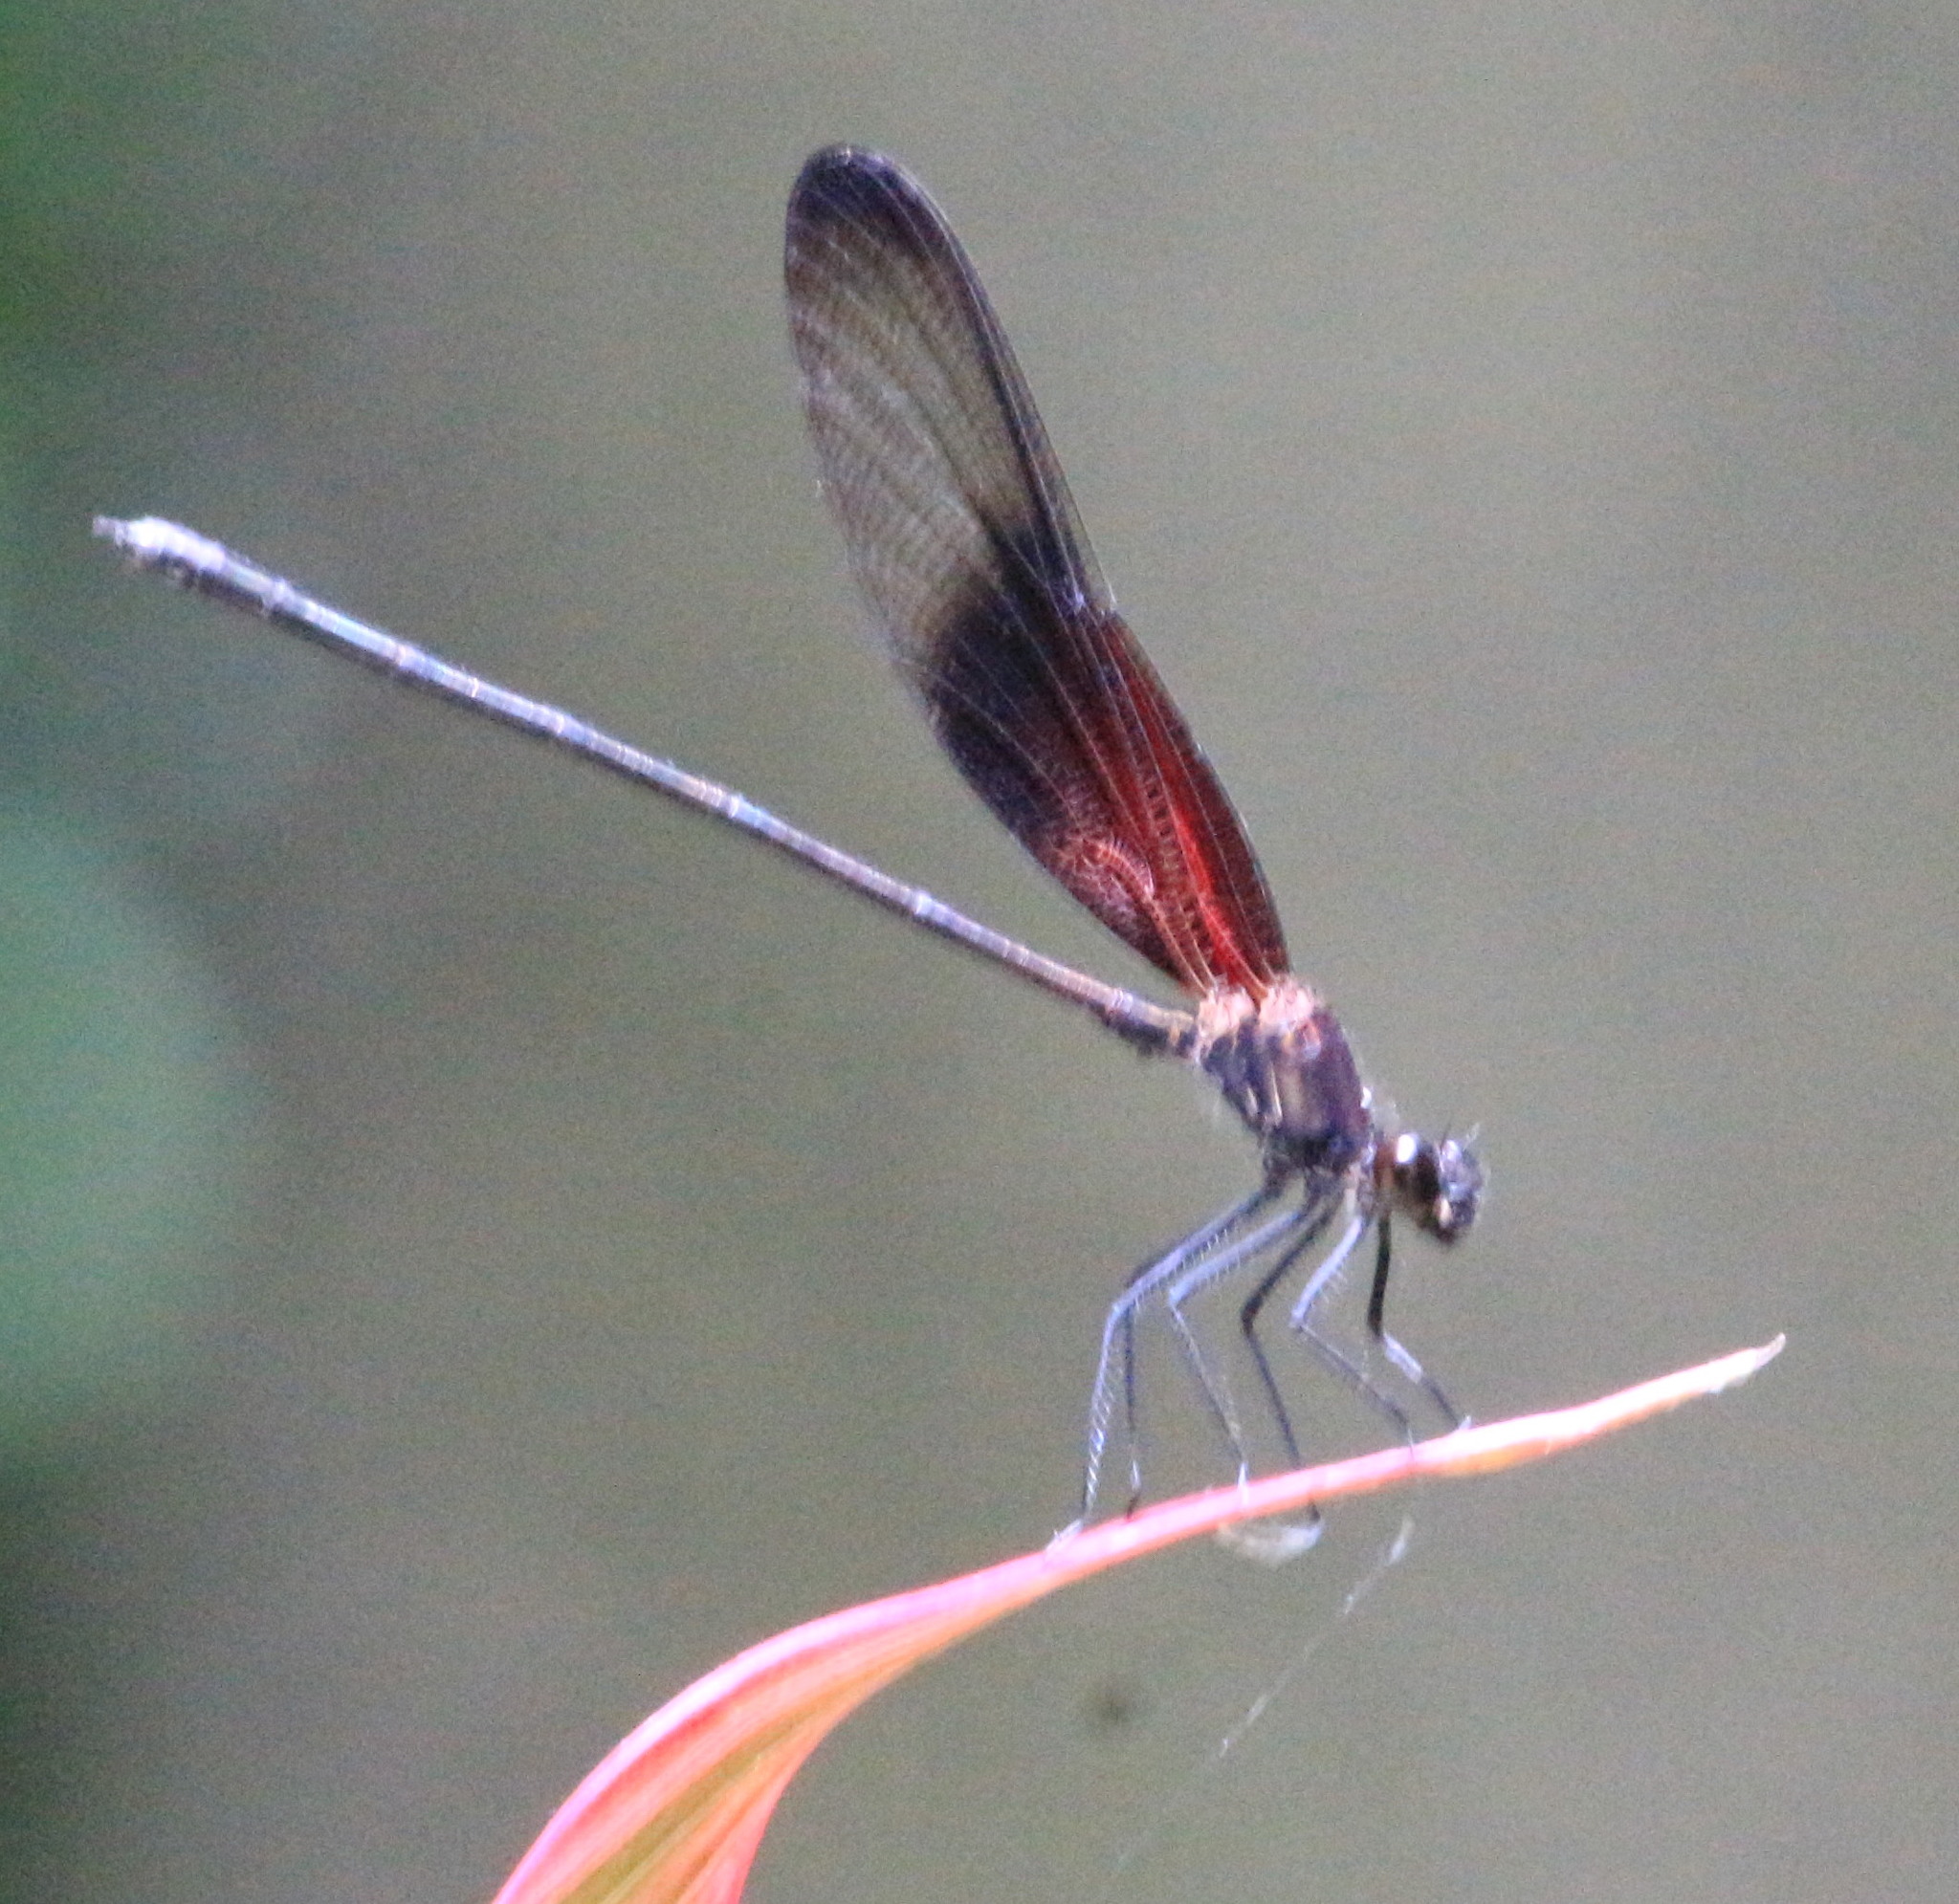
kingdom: Animalia
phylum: Arthropoda
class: Insecta
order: Odonata
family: Calopterygidae
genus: Hetaerina
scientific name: Hetaerina titia
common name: Smoky rubyspot
